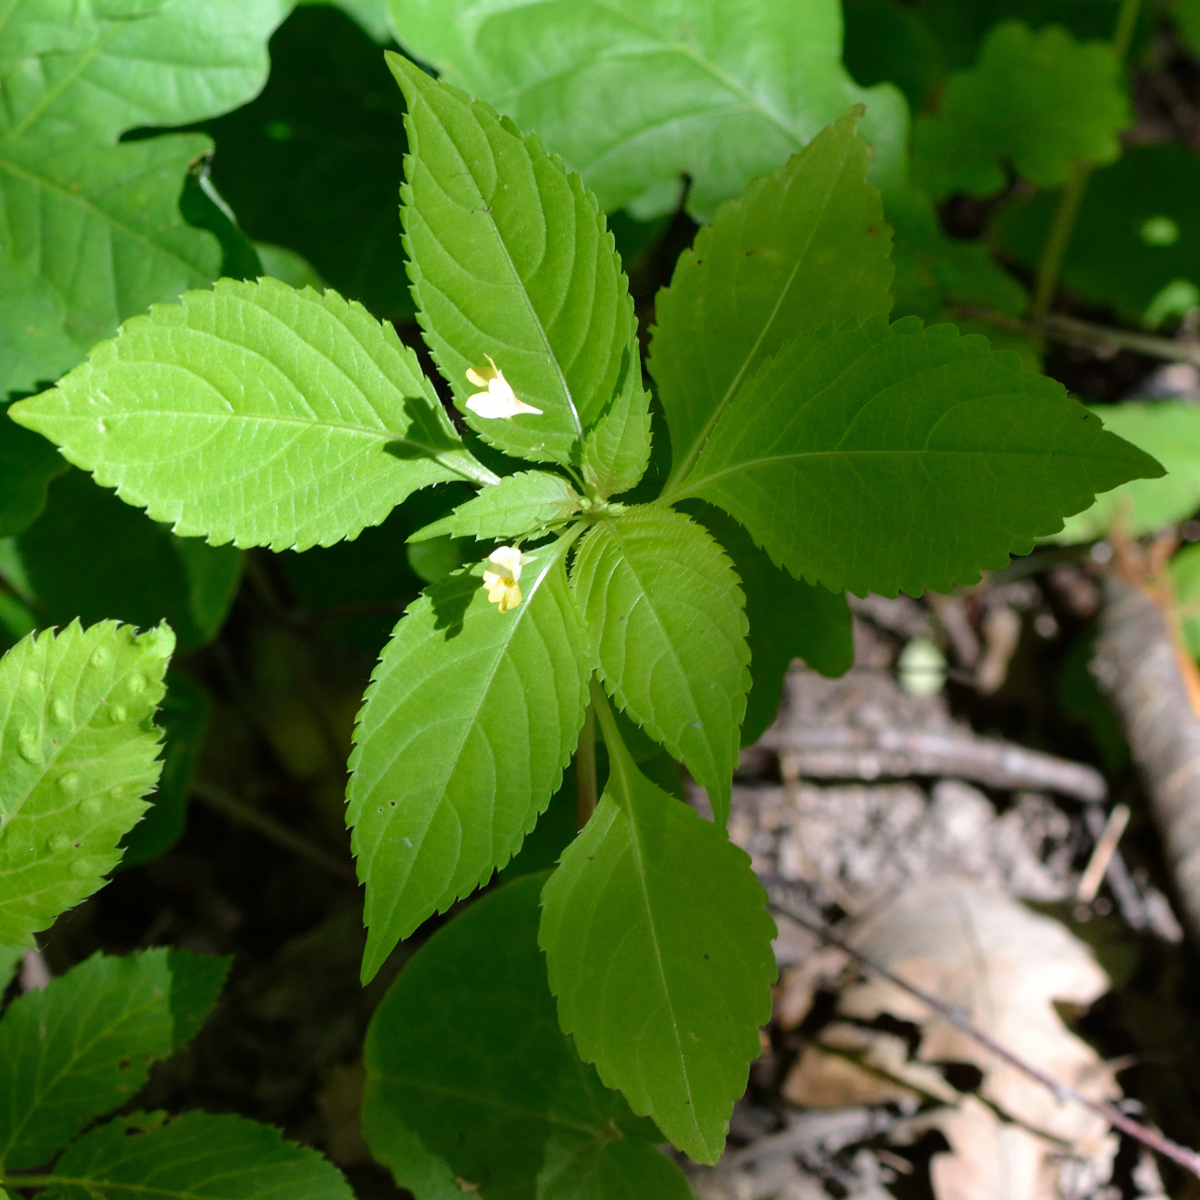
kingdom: Plantae
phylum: Tracheophyta
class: Magnoliopsida
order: Ericales
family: Balsaminaceae
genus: Impatiens
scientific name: Impatiens parviflora
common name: Small balsam
